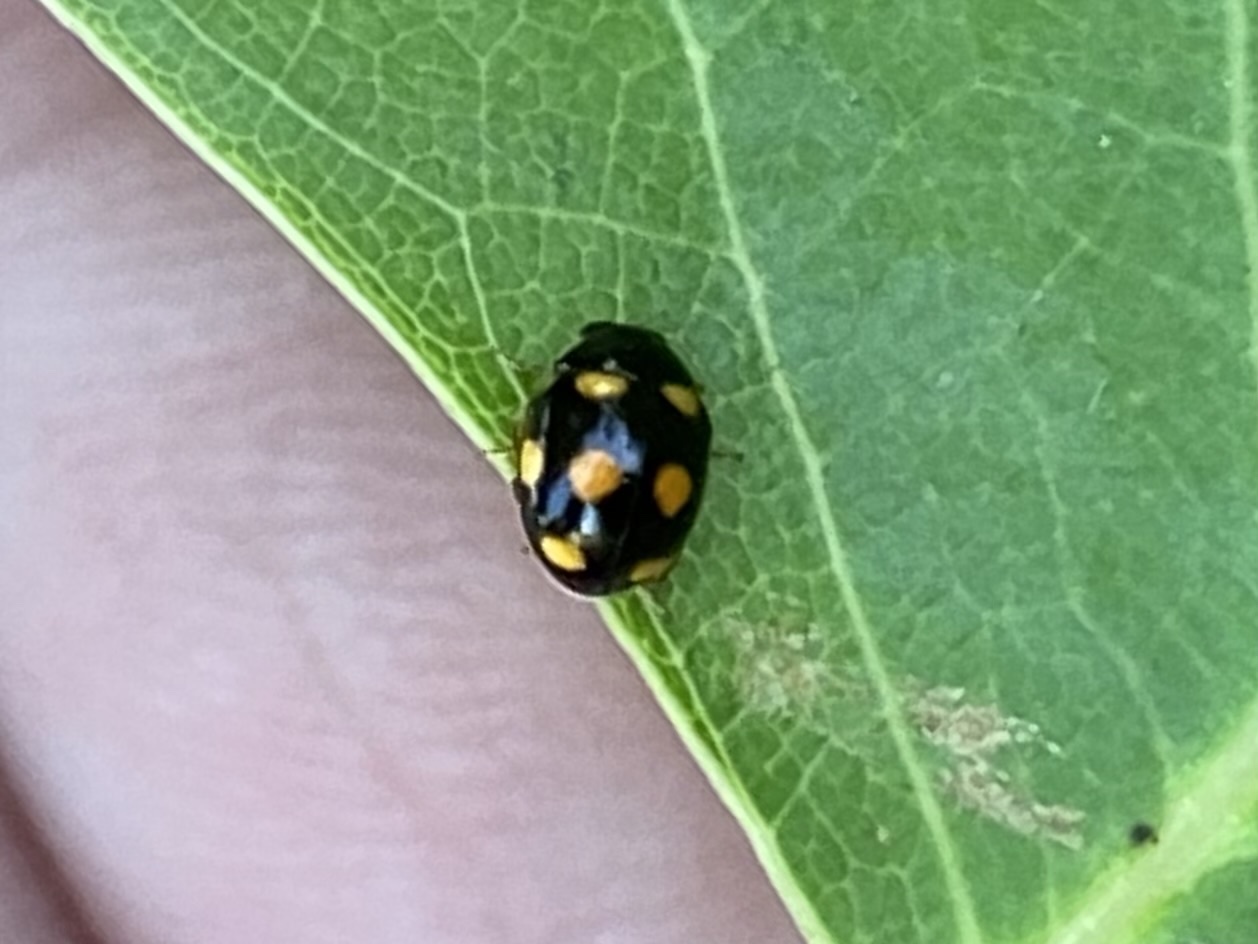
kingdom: Animalia
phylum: Arthropoda
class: Insecta
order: Coleoptera
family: Coccinellidae
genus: Brachiacantha
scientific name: Brachiacantha ursina
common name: Ursine spurleg lady beetle
